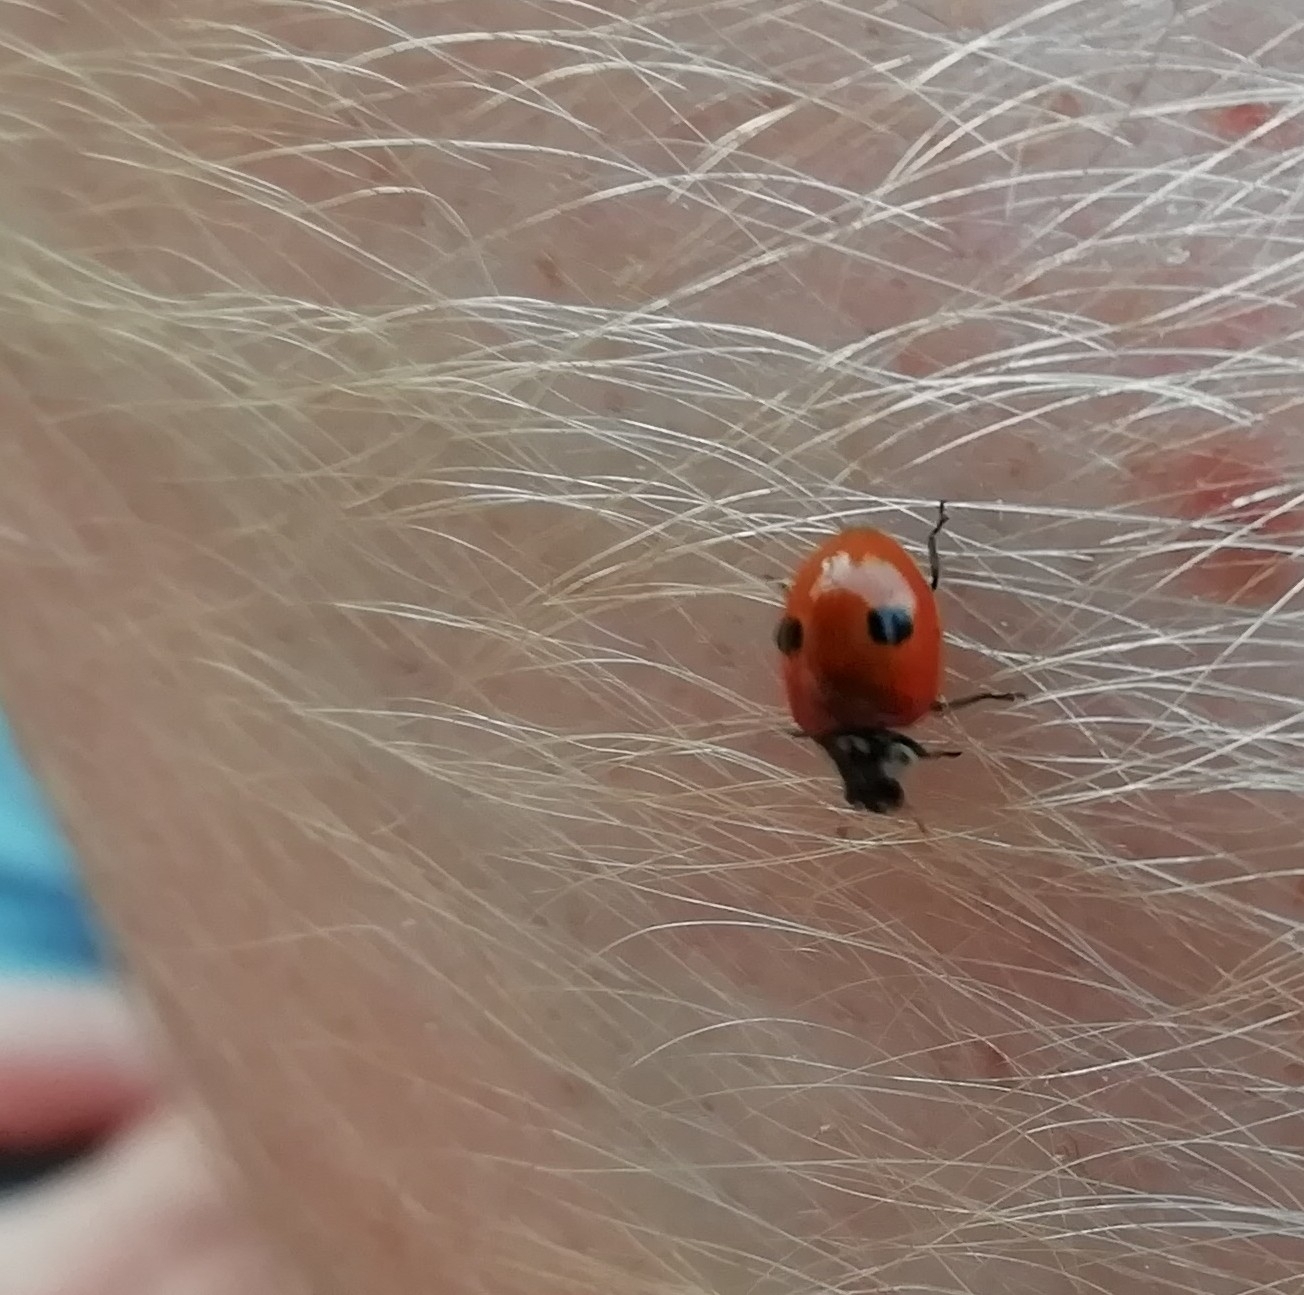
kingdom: Animalia
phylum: Arthropoda
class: Insecta
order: Coleoptera
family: Coccinellidae
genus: Adalia
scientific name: Adalia bipunctata
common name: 2-spot ladybird
